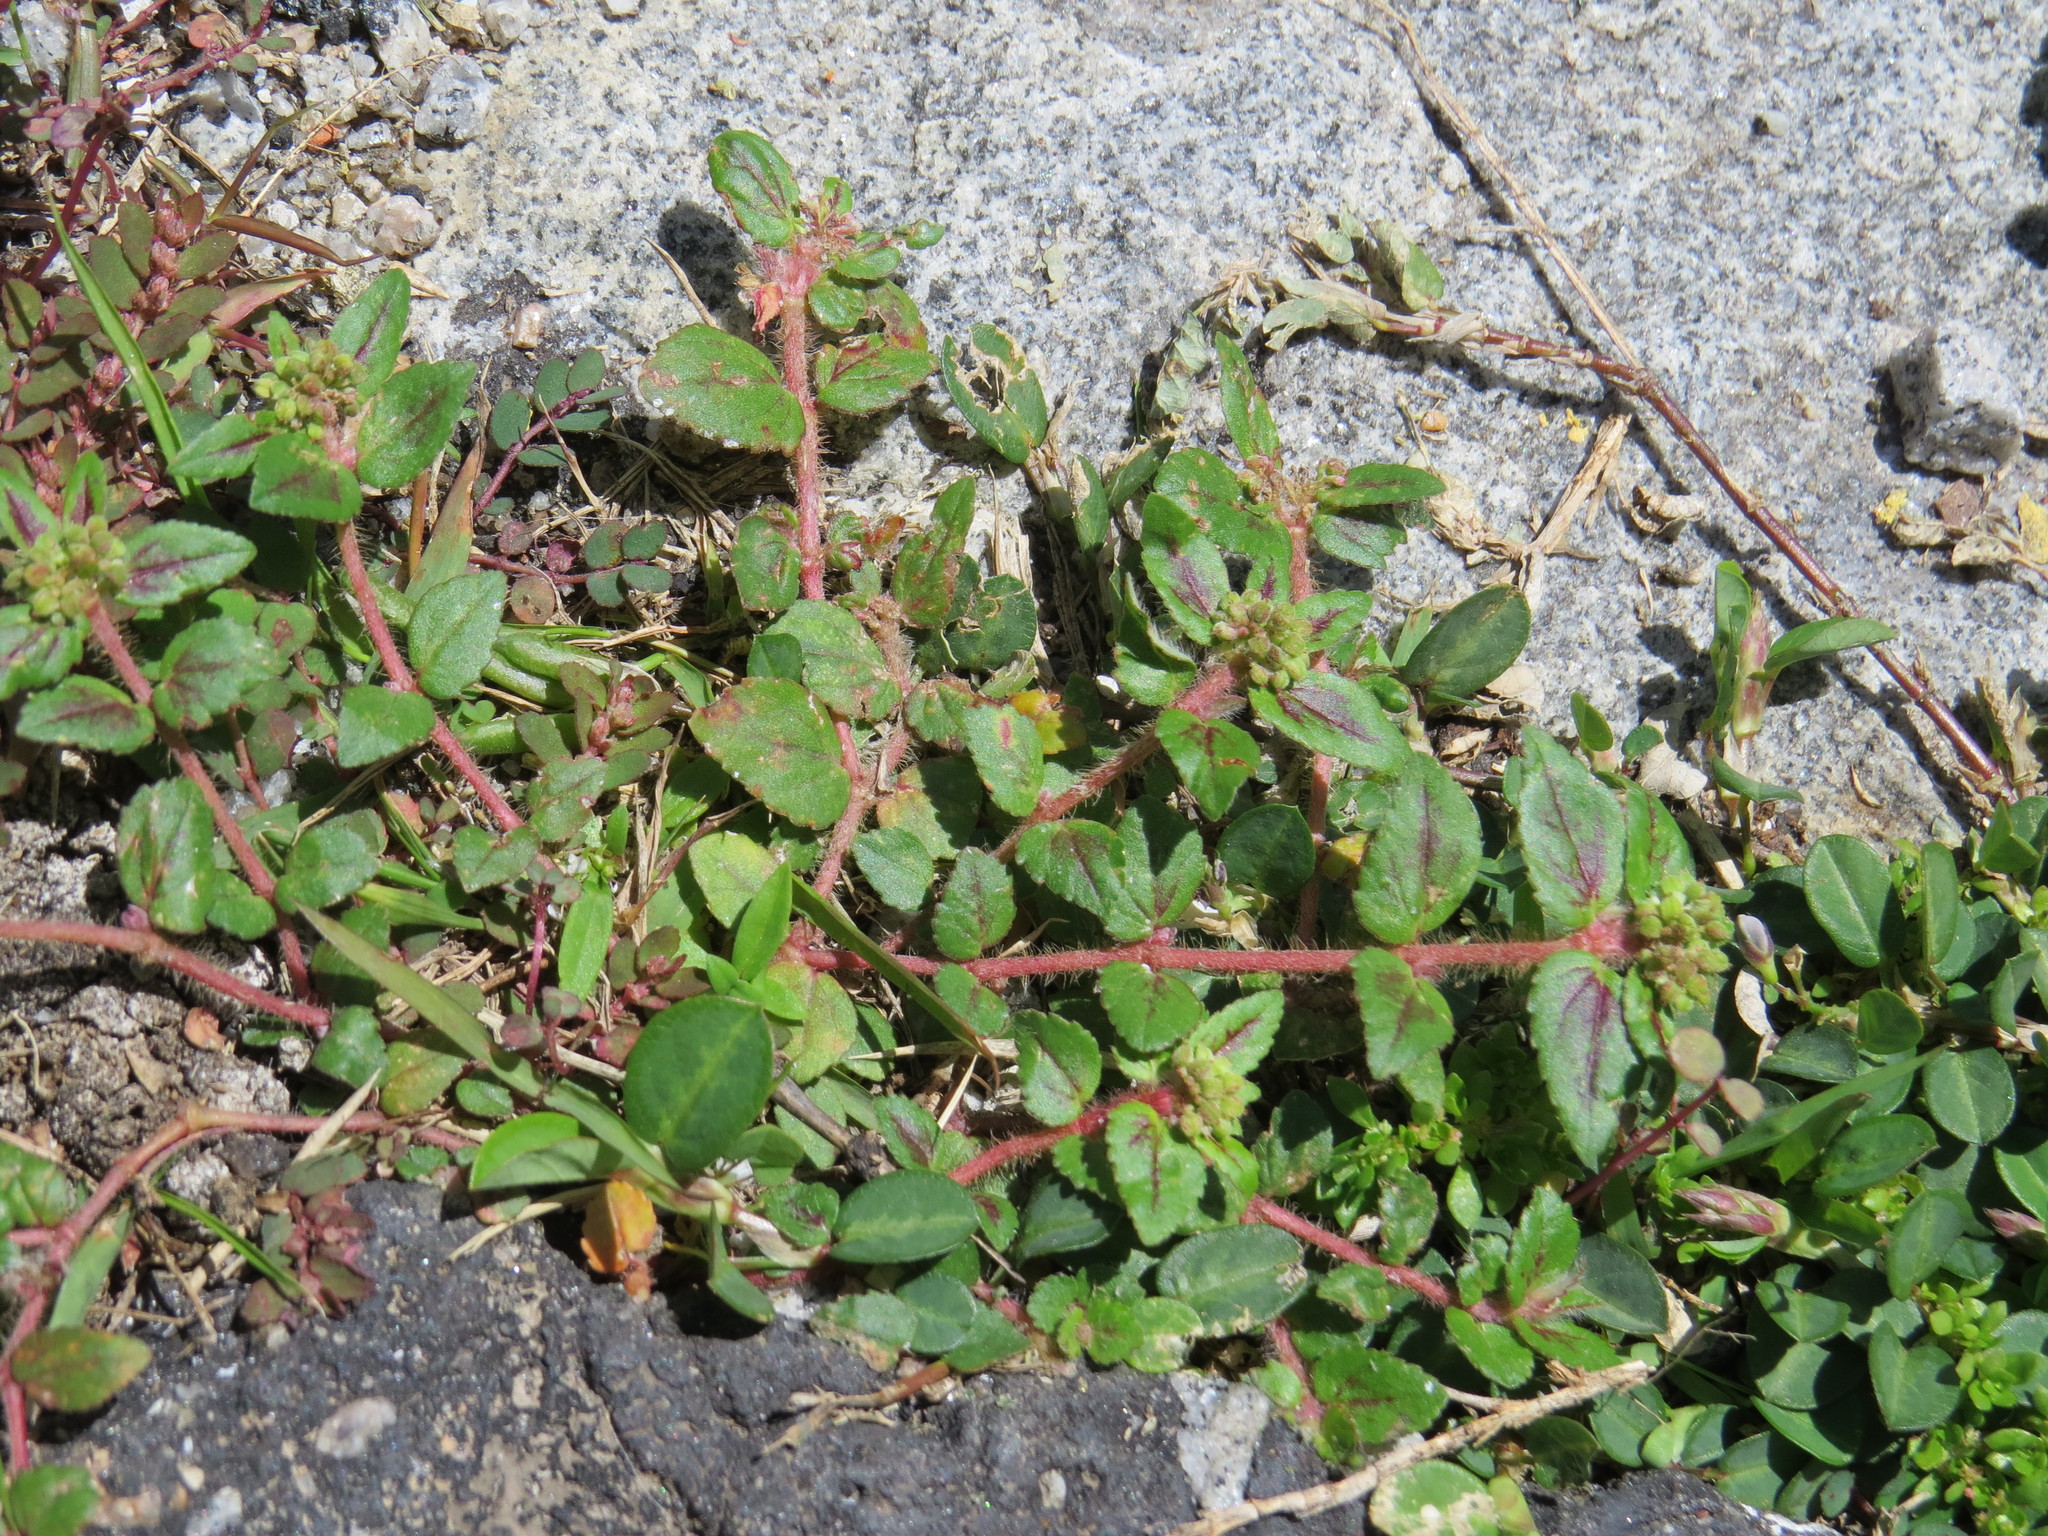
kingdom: Plantae
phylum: Tracheophyta
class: Magnoliopsida
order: Malpighiales
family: Euphorbiaceae
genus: Euphorbia
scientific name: Euphorbia ophthalmica
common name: Florida hammock sandmat
